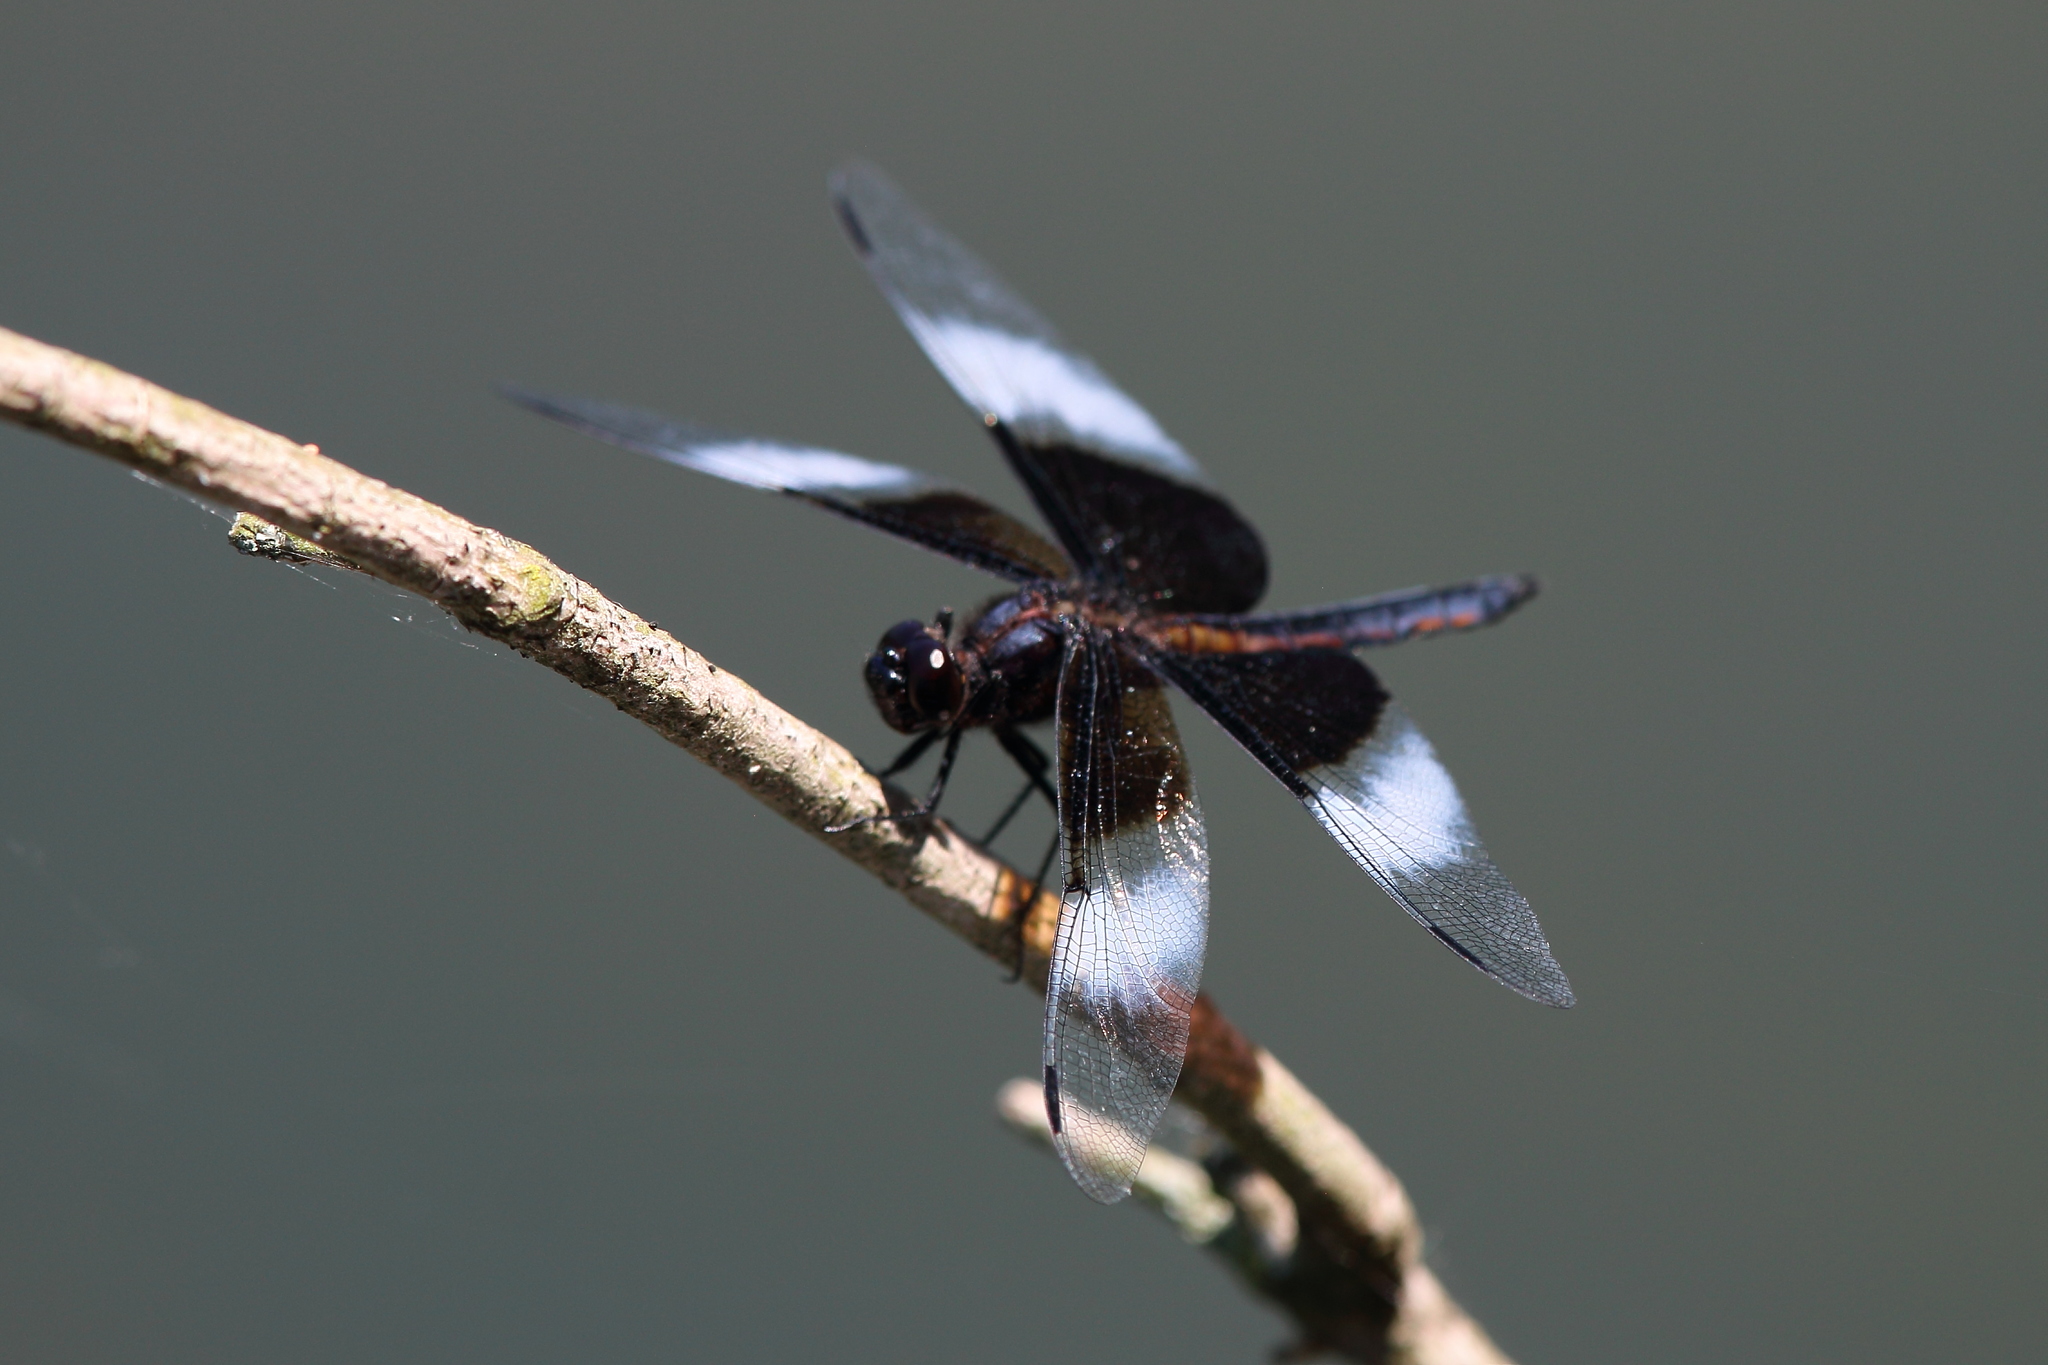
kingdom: Animalia
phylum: Arthropoda
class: Insecta
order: Odonata
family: Libellulidae
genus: Libellula
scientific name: Libellula luctuosa
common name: Widow skimmer
